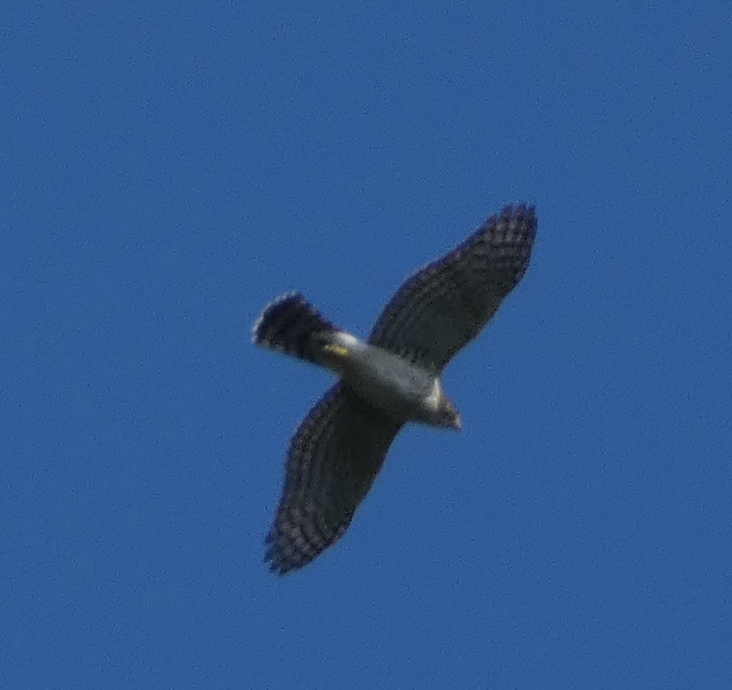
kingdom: Animalia
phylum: Chordata
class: Aves
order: Accipitriformes
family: Accipitridae
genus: Accipiter
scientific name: Accipiter cooperii
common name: Cooper's hawk
